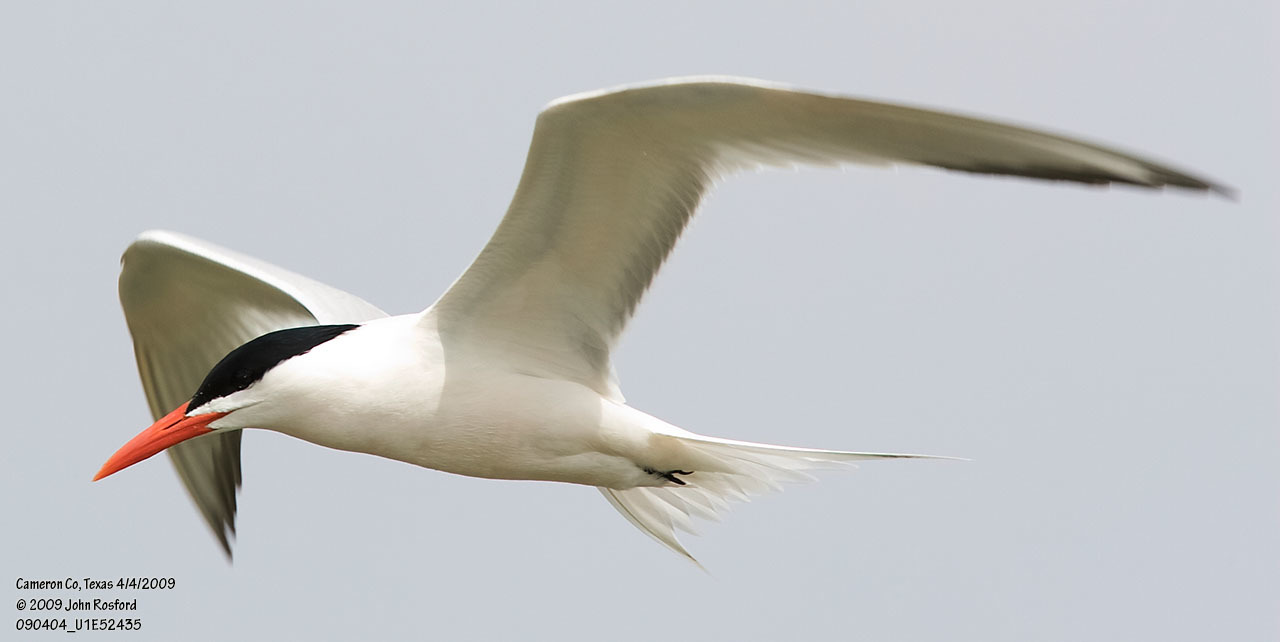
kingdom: Animalia
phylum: Chordata
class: Aves
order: Charadriiformes
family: Laridae
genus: Thalasseus
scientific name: Thalasseus maximus
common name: Royal tern
